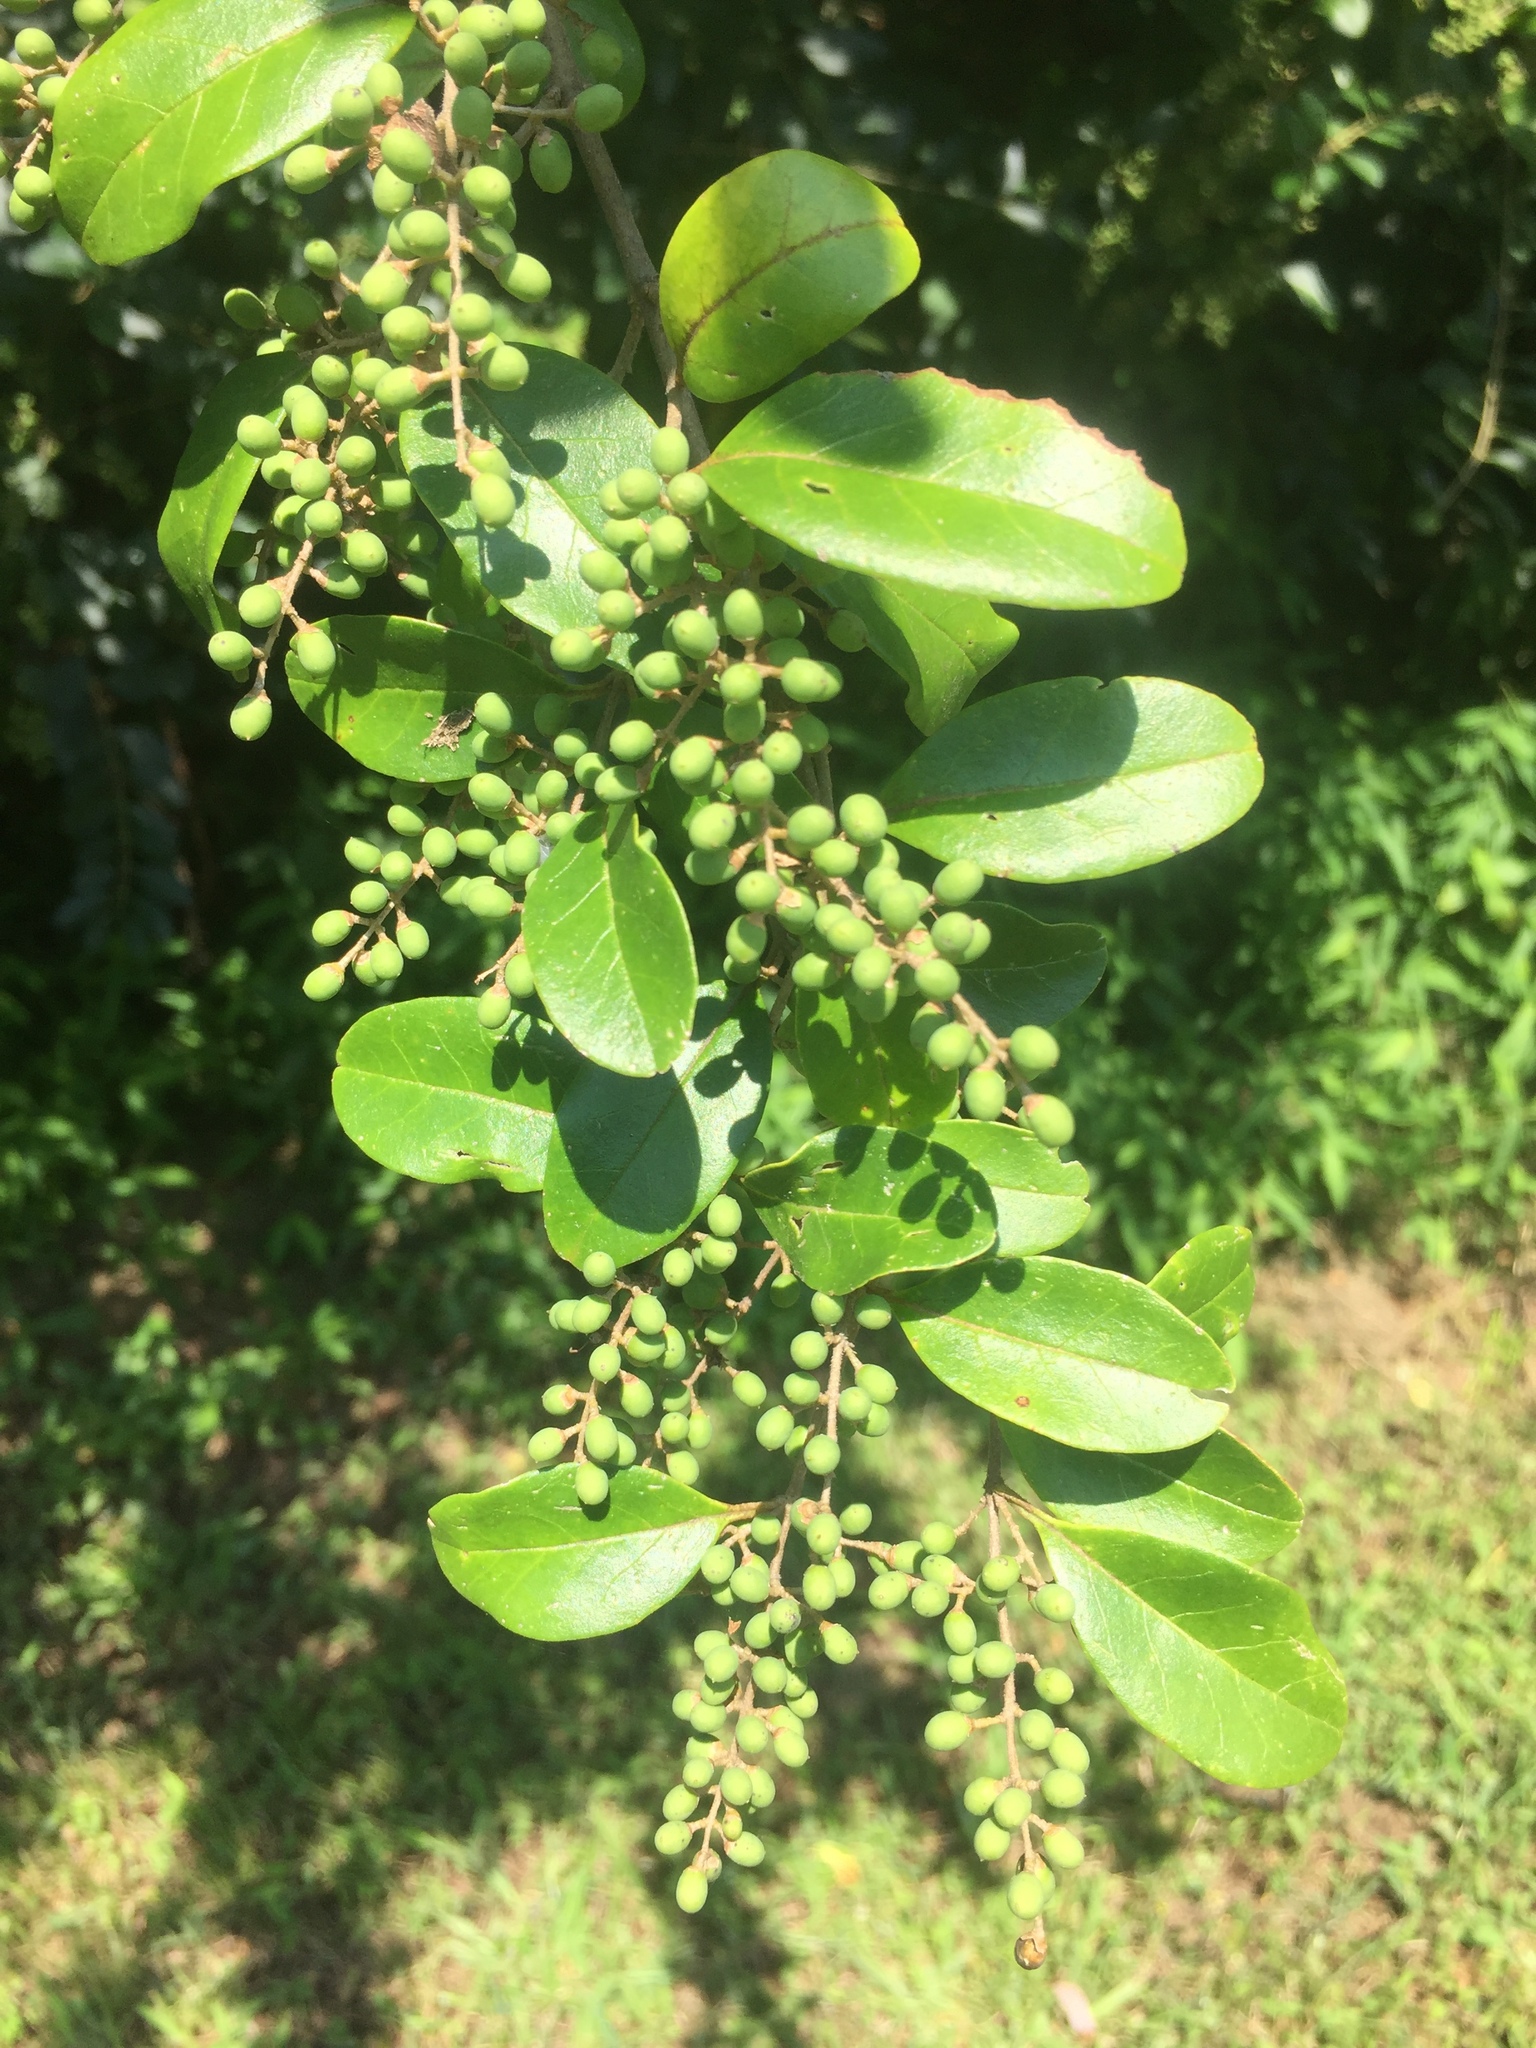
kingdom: Plantae
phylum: Tracheophyta
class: Magnoliopsida
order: Lamiales
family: Oleaceae
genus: Ligustrum
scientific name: Ligustrum sinense
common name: Chinese privet
